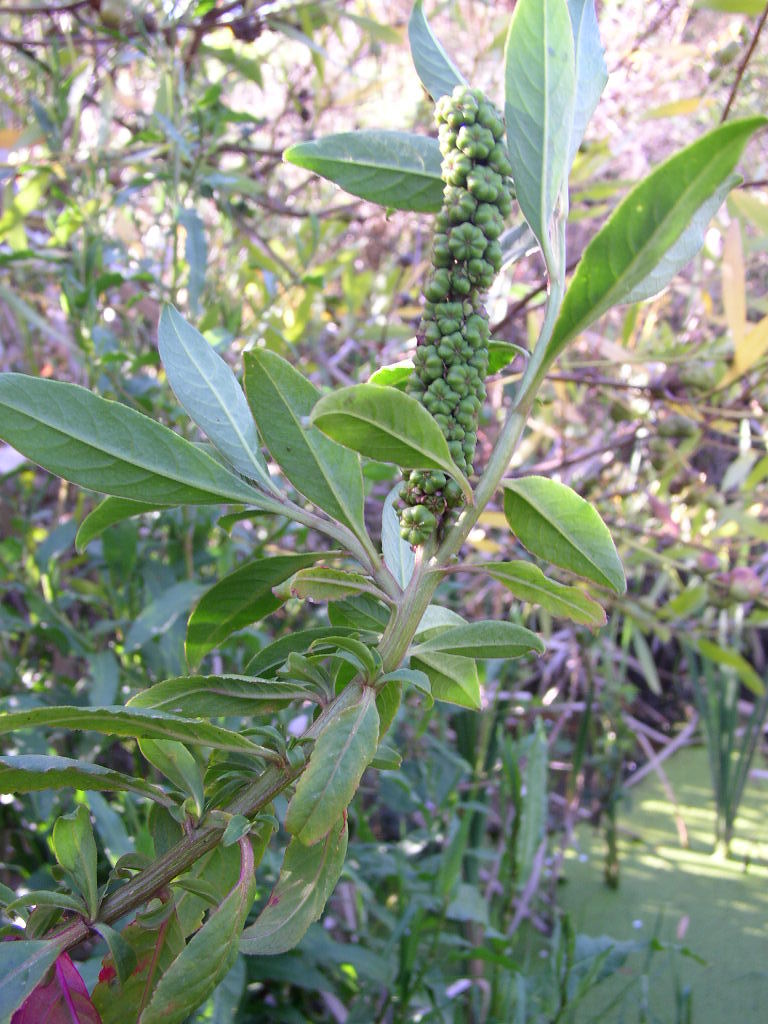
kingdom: Plantae
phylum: Tracheophyta
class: Magnoliopsida
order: Caryophyllales
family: Phytolaccaceae
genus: Phytolacca
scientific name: Phytolacca icosandra
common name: Button pokeweed
